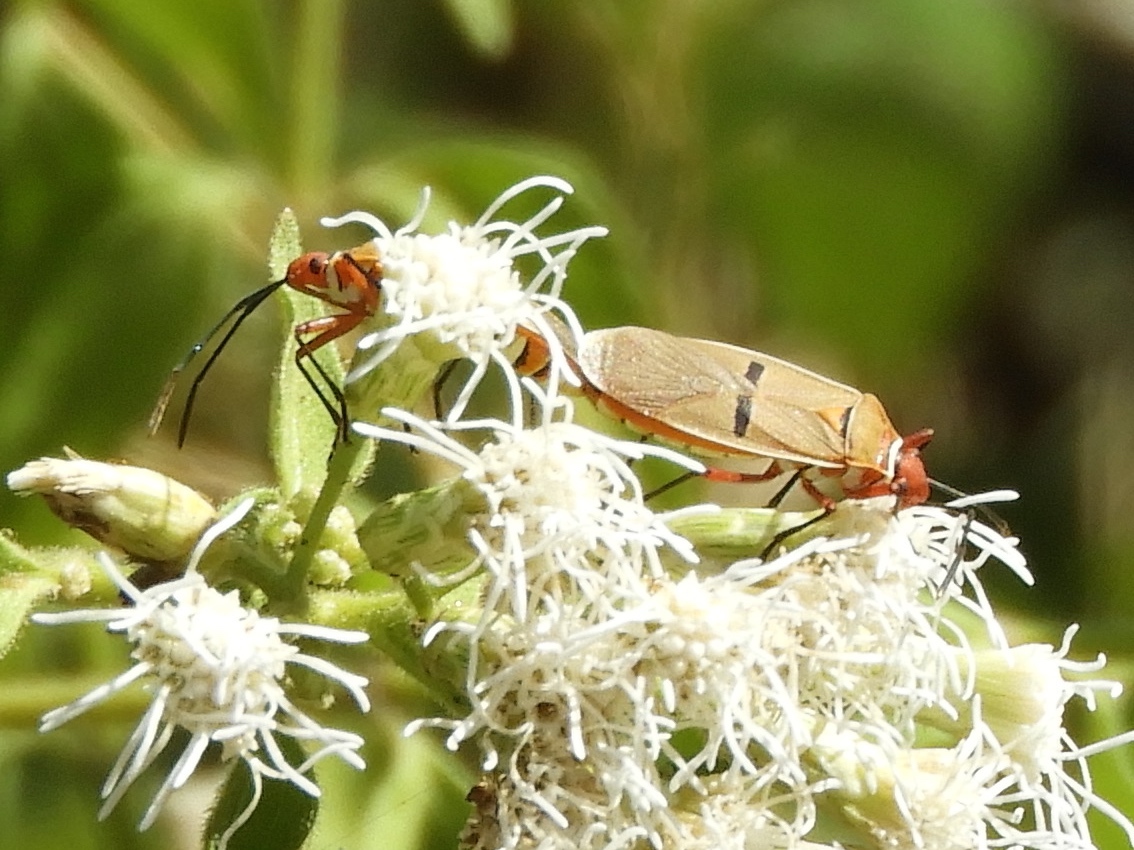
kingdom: Animalia
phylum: Arthropoda
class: Insecta
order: Hemiptera
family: Pyrrhocoridae
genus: Dysdercus
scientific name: Dysdercus
